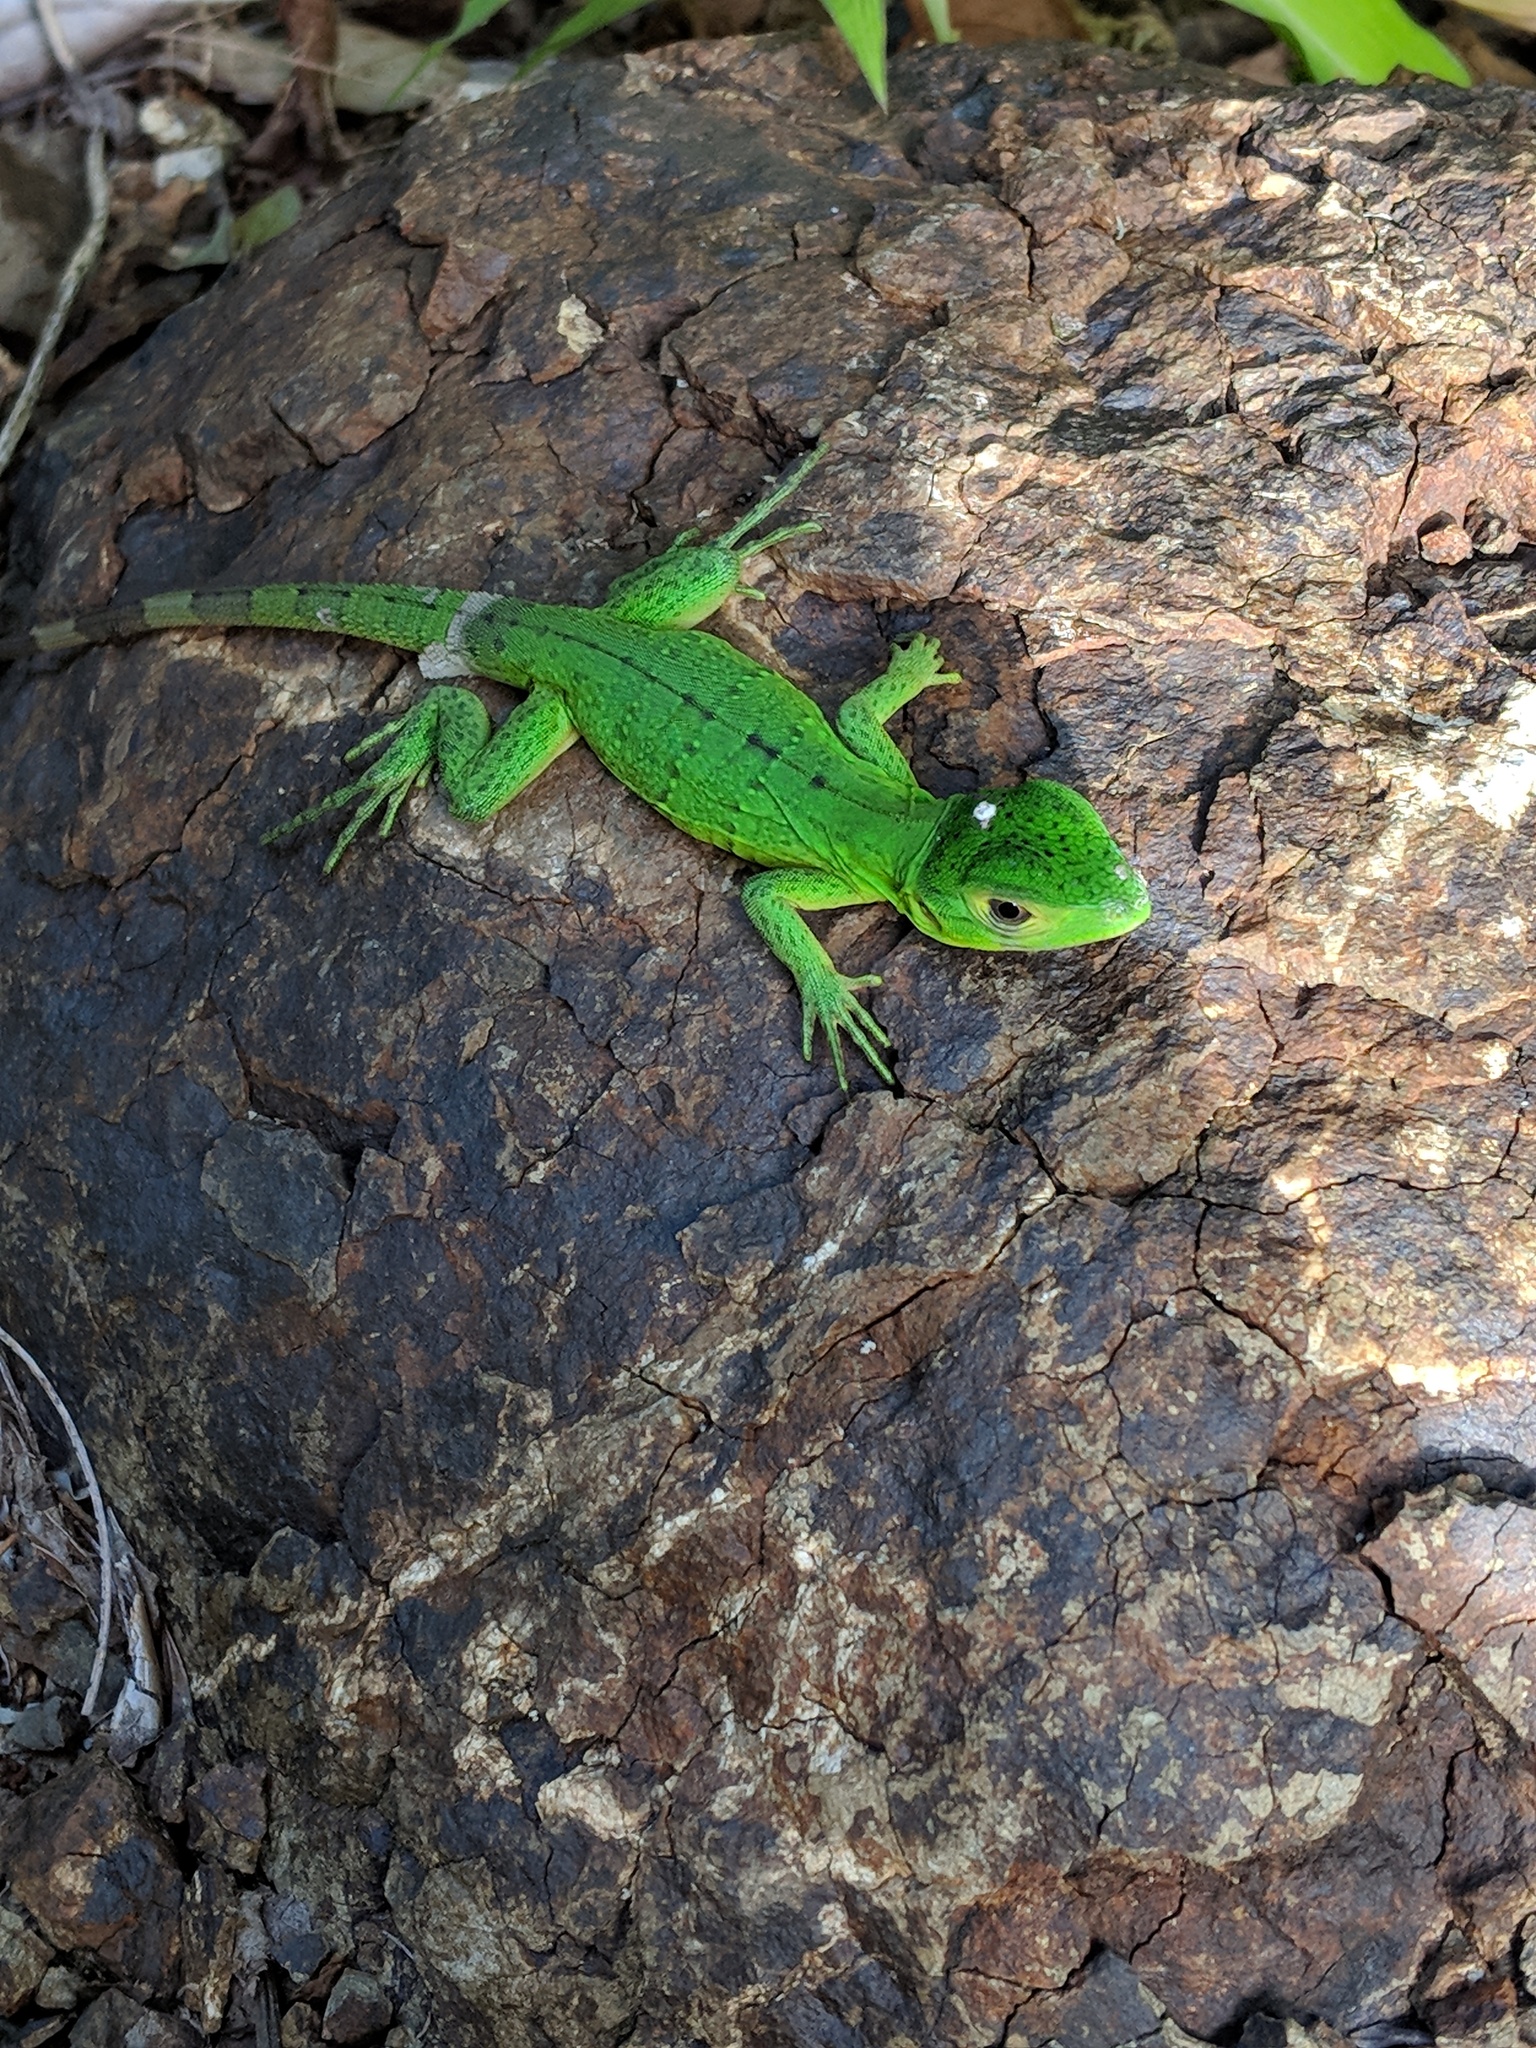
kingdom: Animalia
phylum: Chordata
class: Squamata
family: Iguanidae
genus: Ctenosaura
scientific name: Ctenosaura similis
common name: Black spiny-tailed iguana
